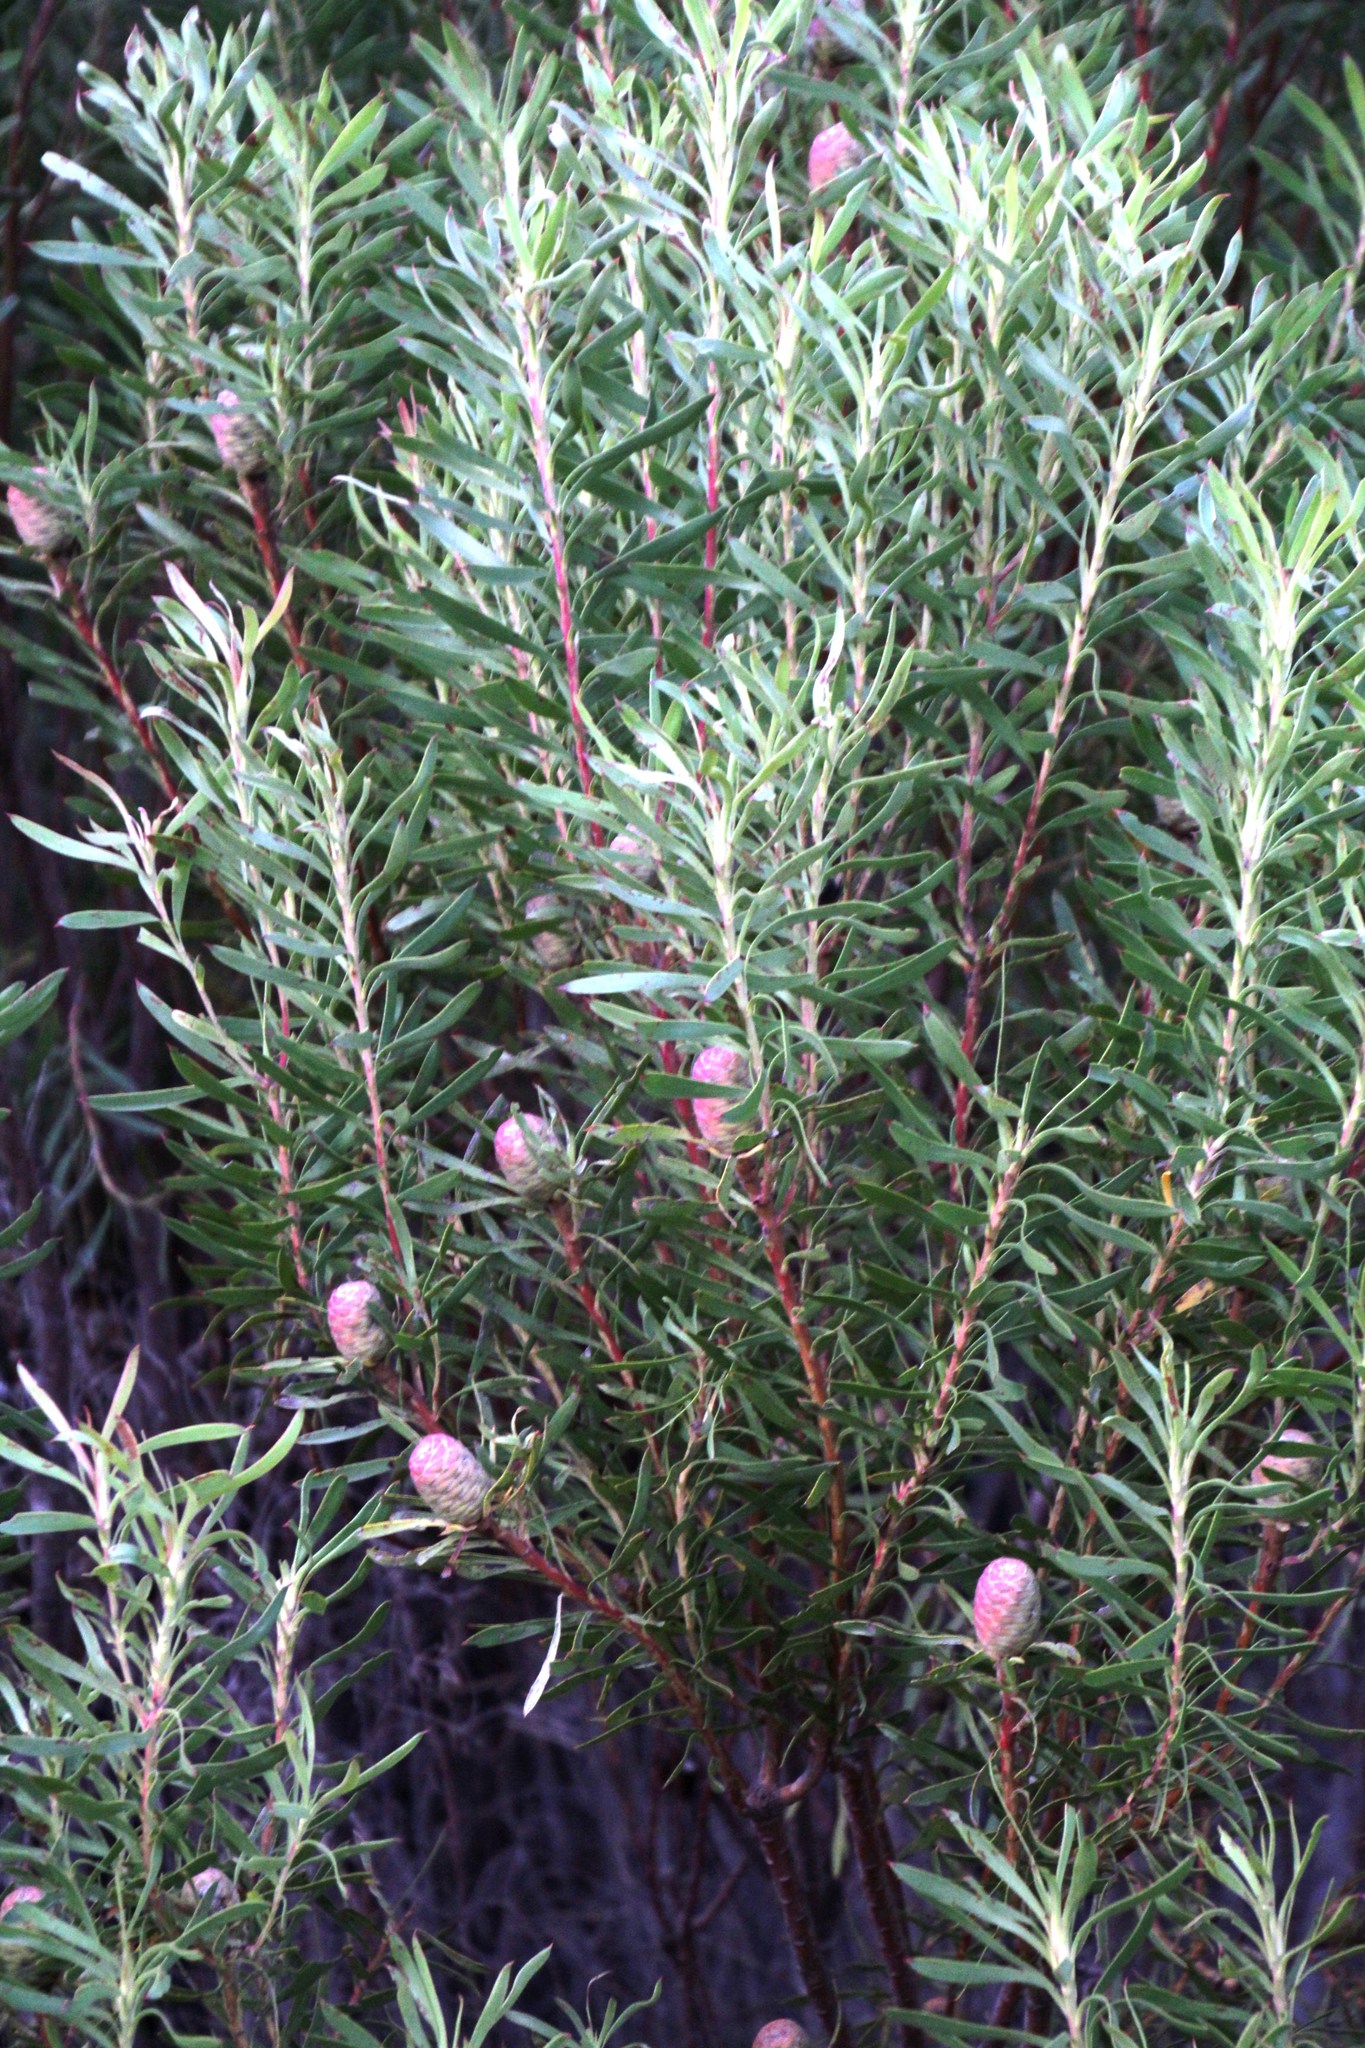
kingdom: Plantae
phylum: Tracheophyta
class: Magnoliopsida
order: Proteales
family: Proteaceae
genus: Leucadendron
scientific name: Leucadendron coniferum
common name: Dune conebush
